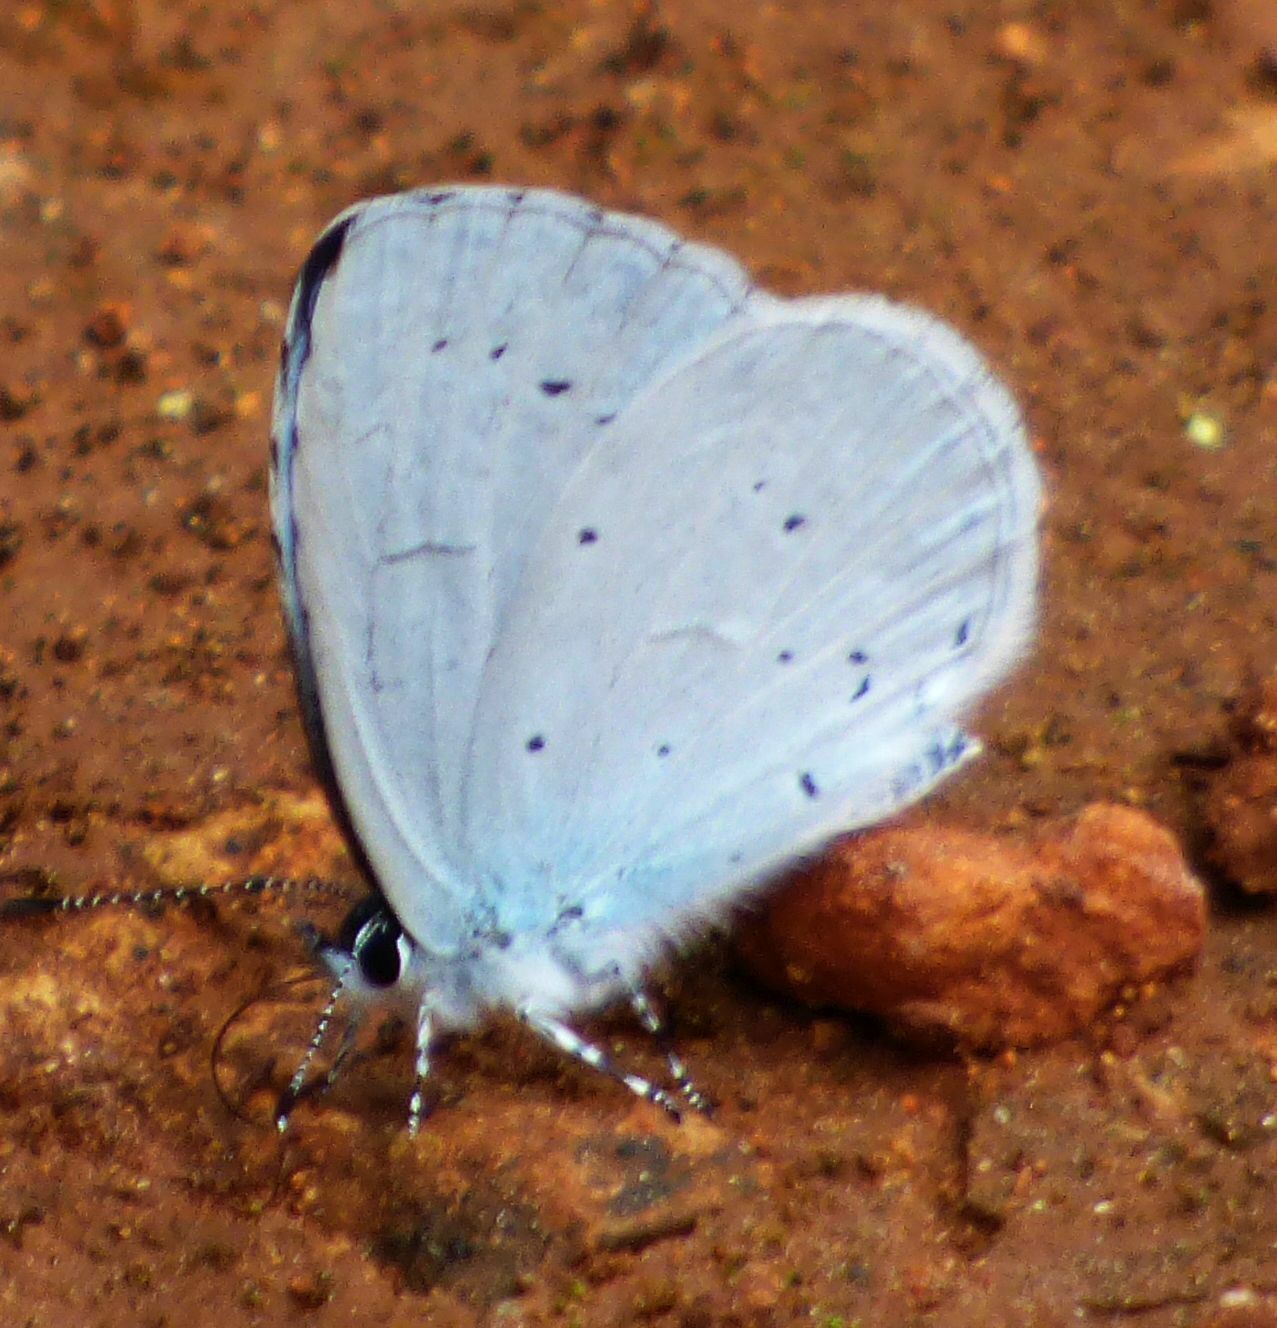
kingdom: Animalia
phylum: Arthropoda
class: Insecta
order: Lepidoptera
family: Lycaenidae
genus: Celastrina
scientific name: Celastrina argiolus
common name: Holly blue
